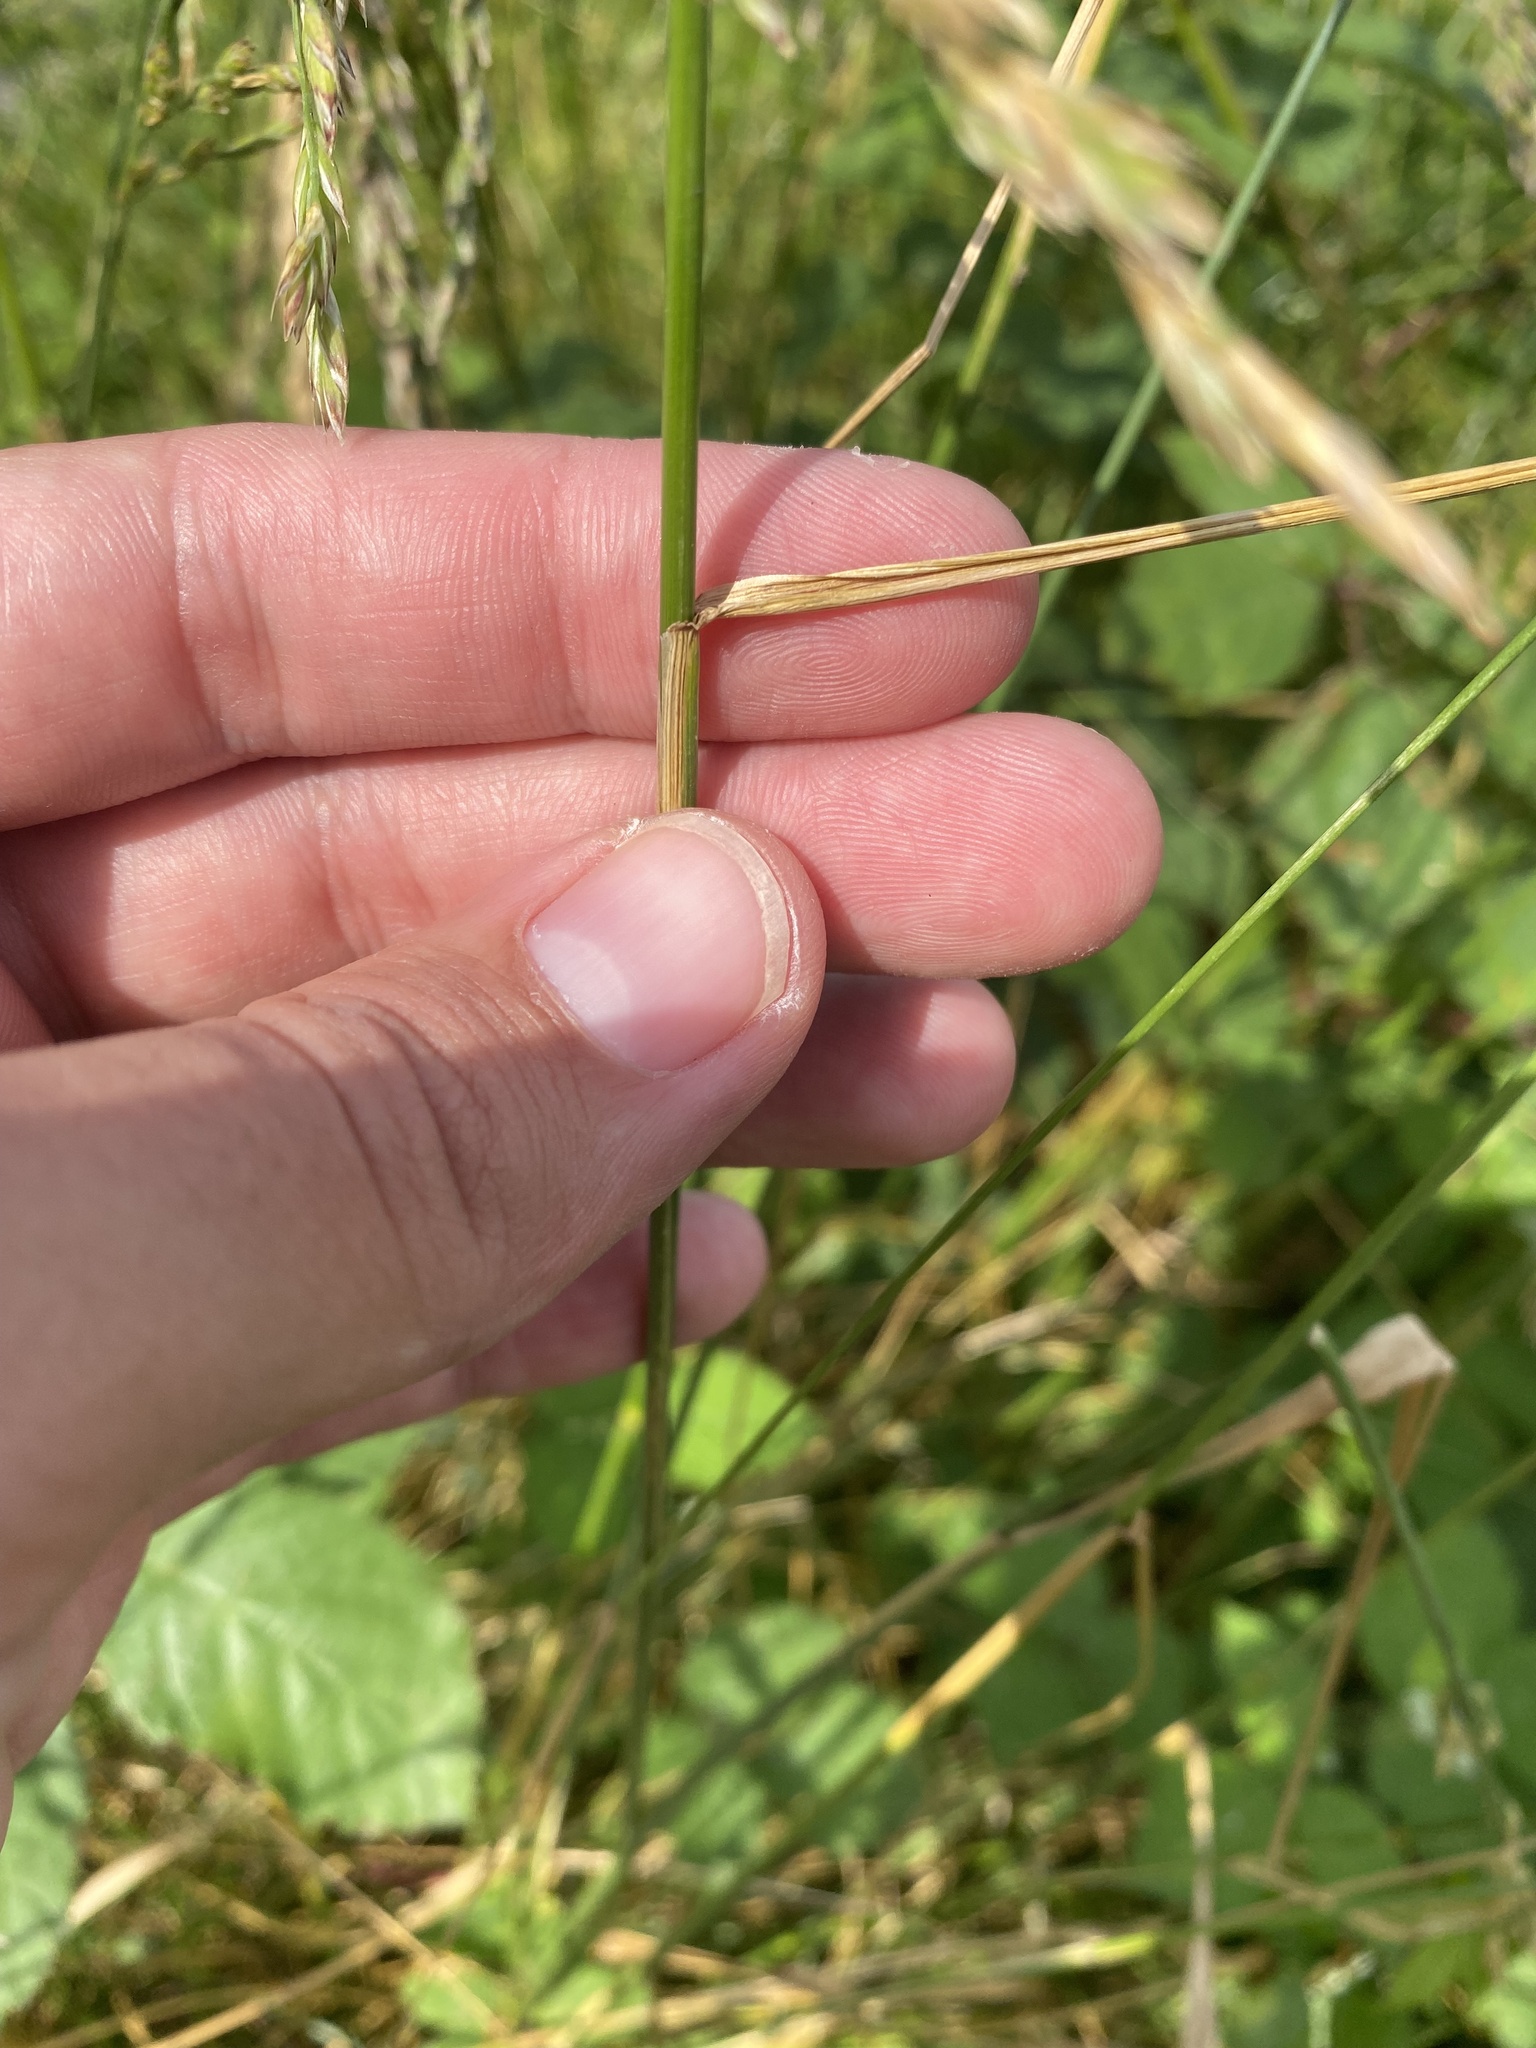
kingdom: Plantae
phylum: Tracheophyta
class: Liliopsida
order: Poales
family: Poaceae
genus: Lolium
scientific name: Lolium arundinaceum
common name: Reed fescue
